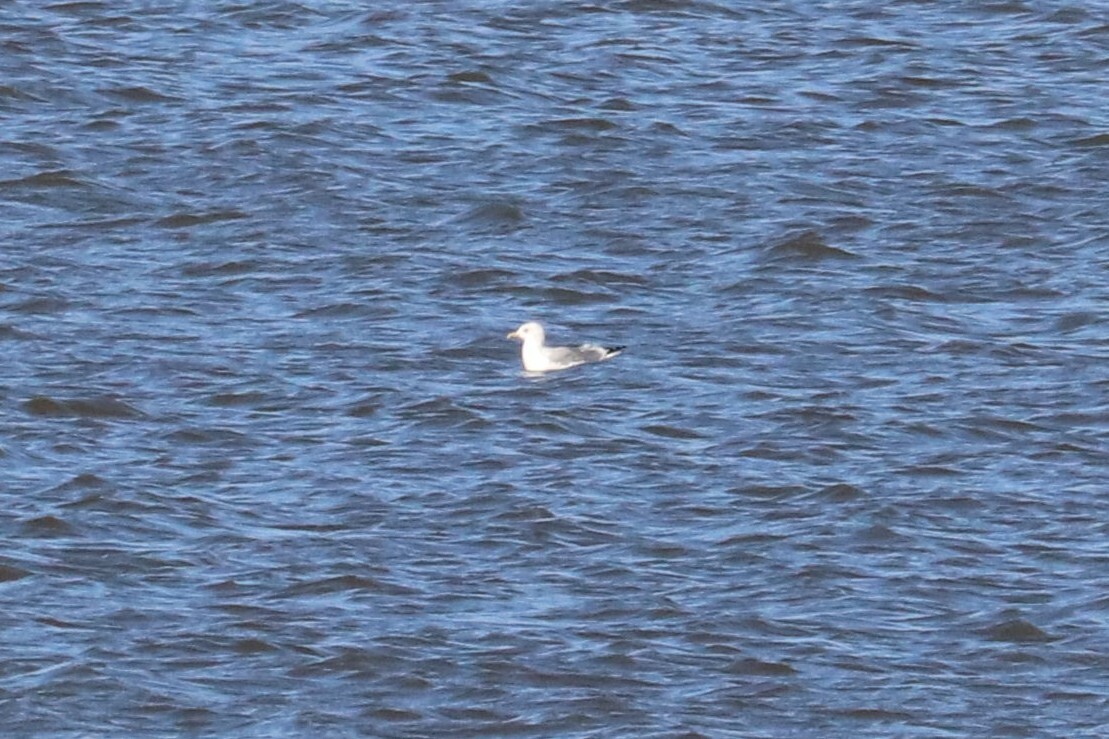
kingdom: Animalia
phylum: Chordata
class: Aves
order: Charadriiformes
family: Laridae
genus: Larus
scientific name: Larus canus
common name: Mew gull
